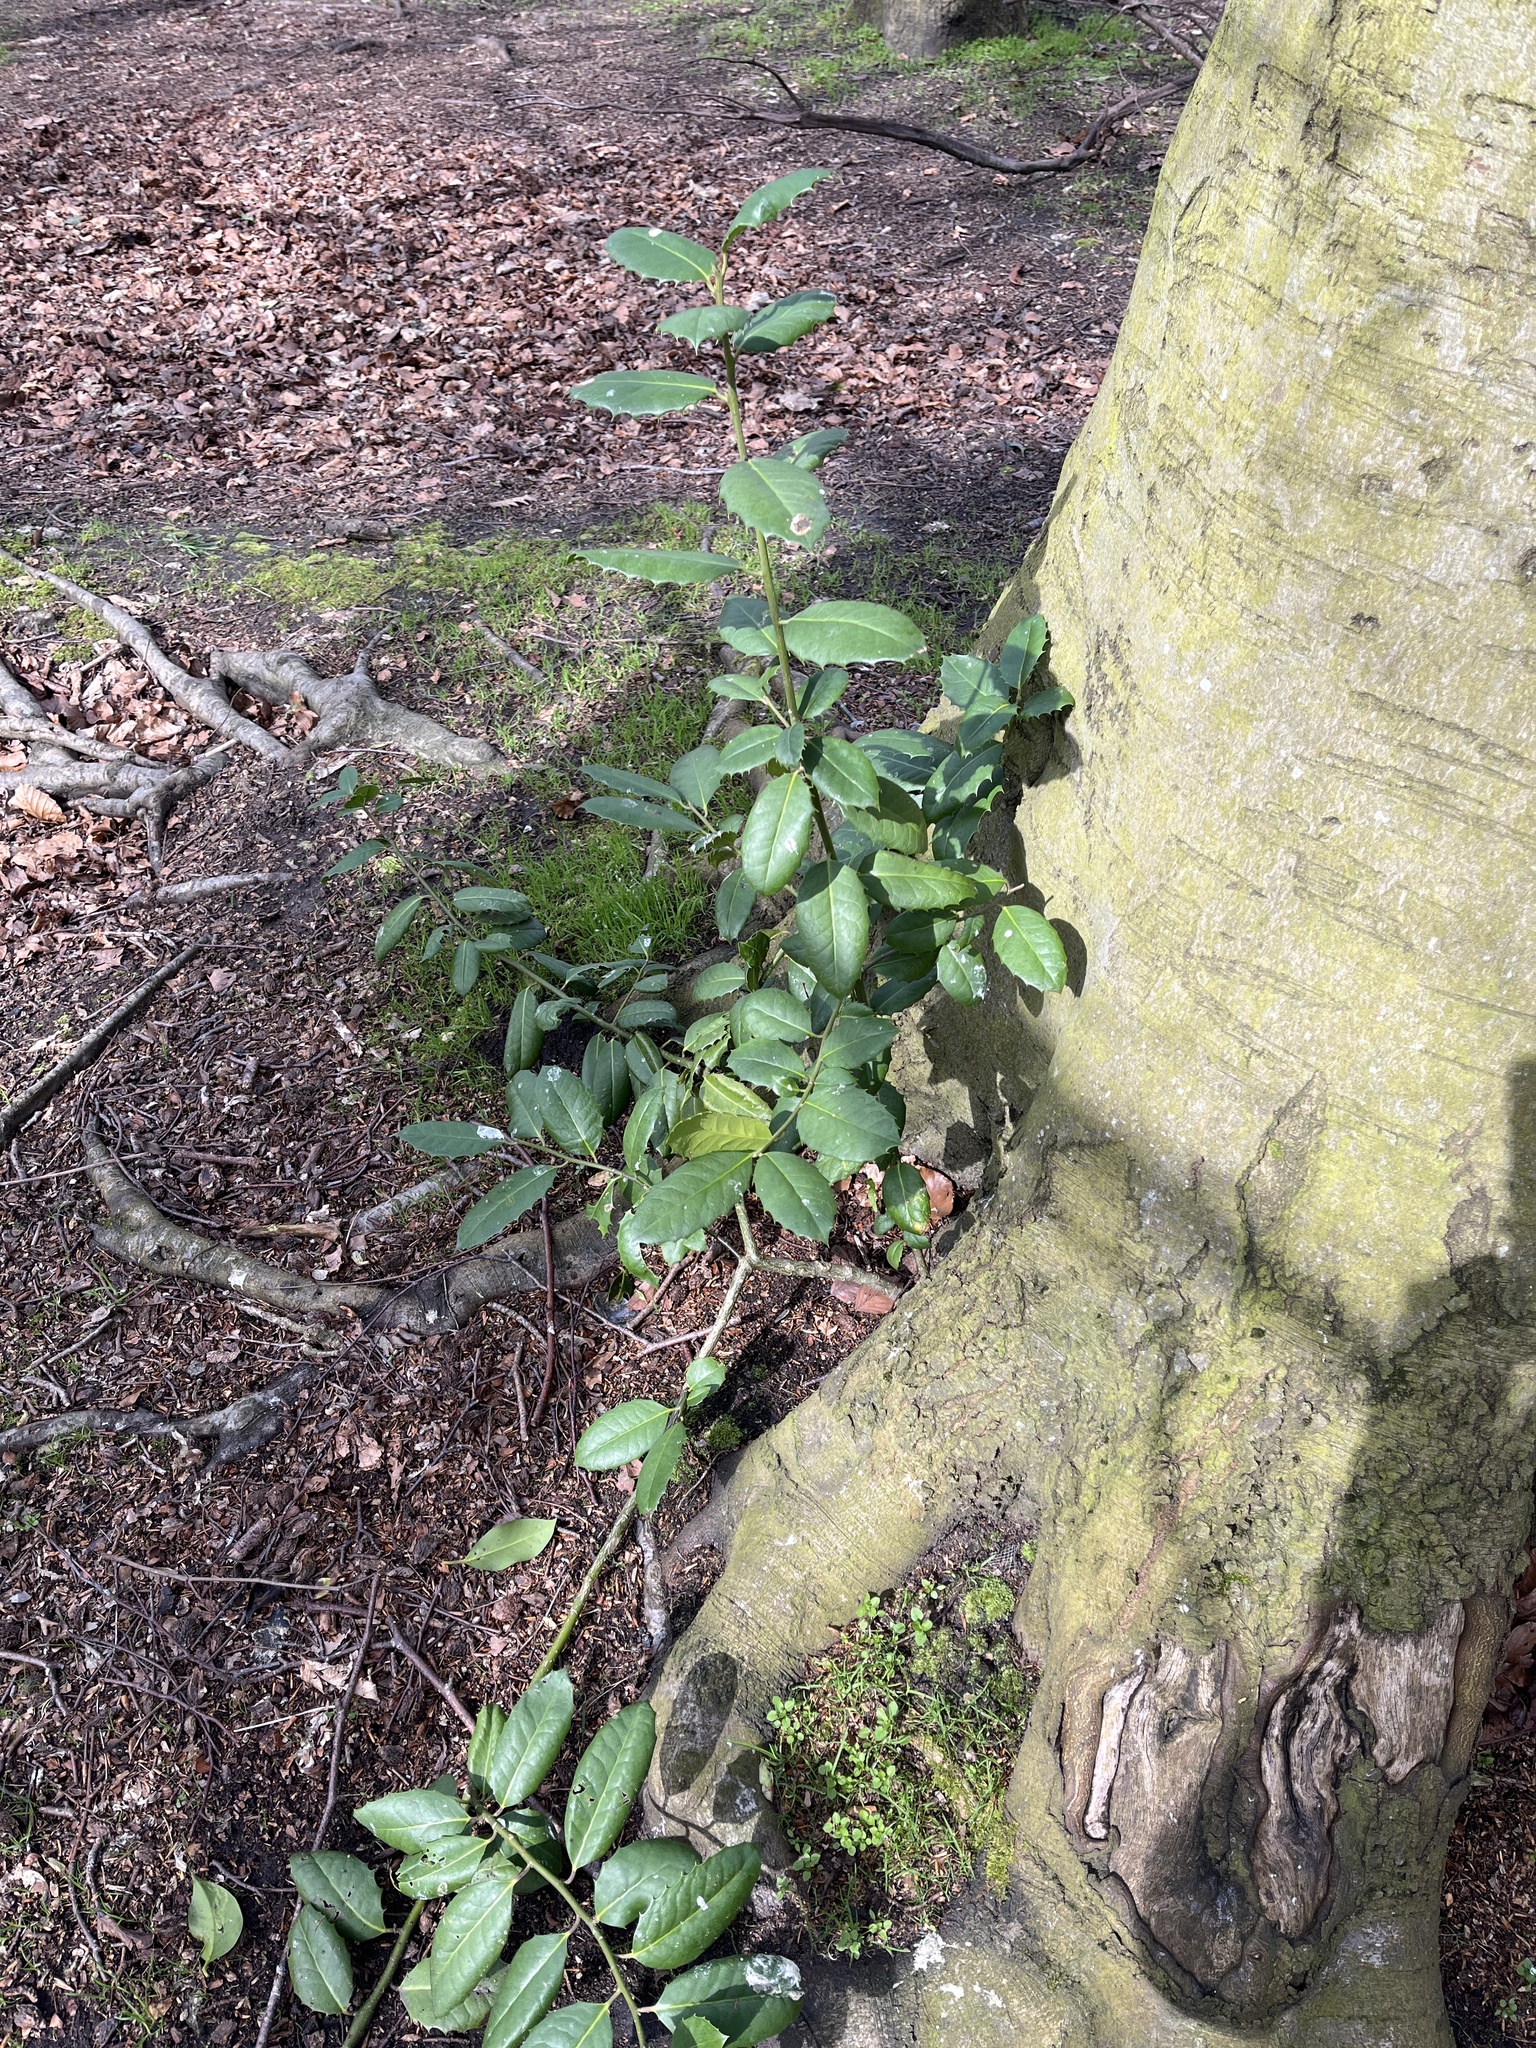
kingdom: Plantae
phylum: Tracheophyta
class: Magnoliopsida
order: Aquifoliales
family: Aquifoliaceae
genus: Ilex
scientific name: Ilex altaclerensis
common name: Highclere holly
